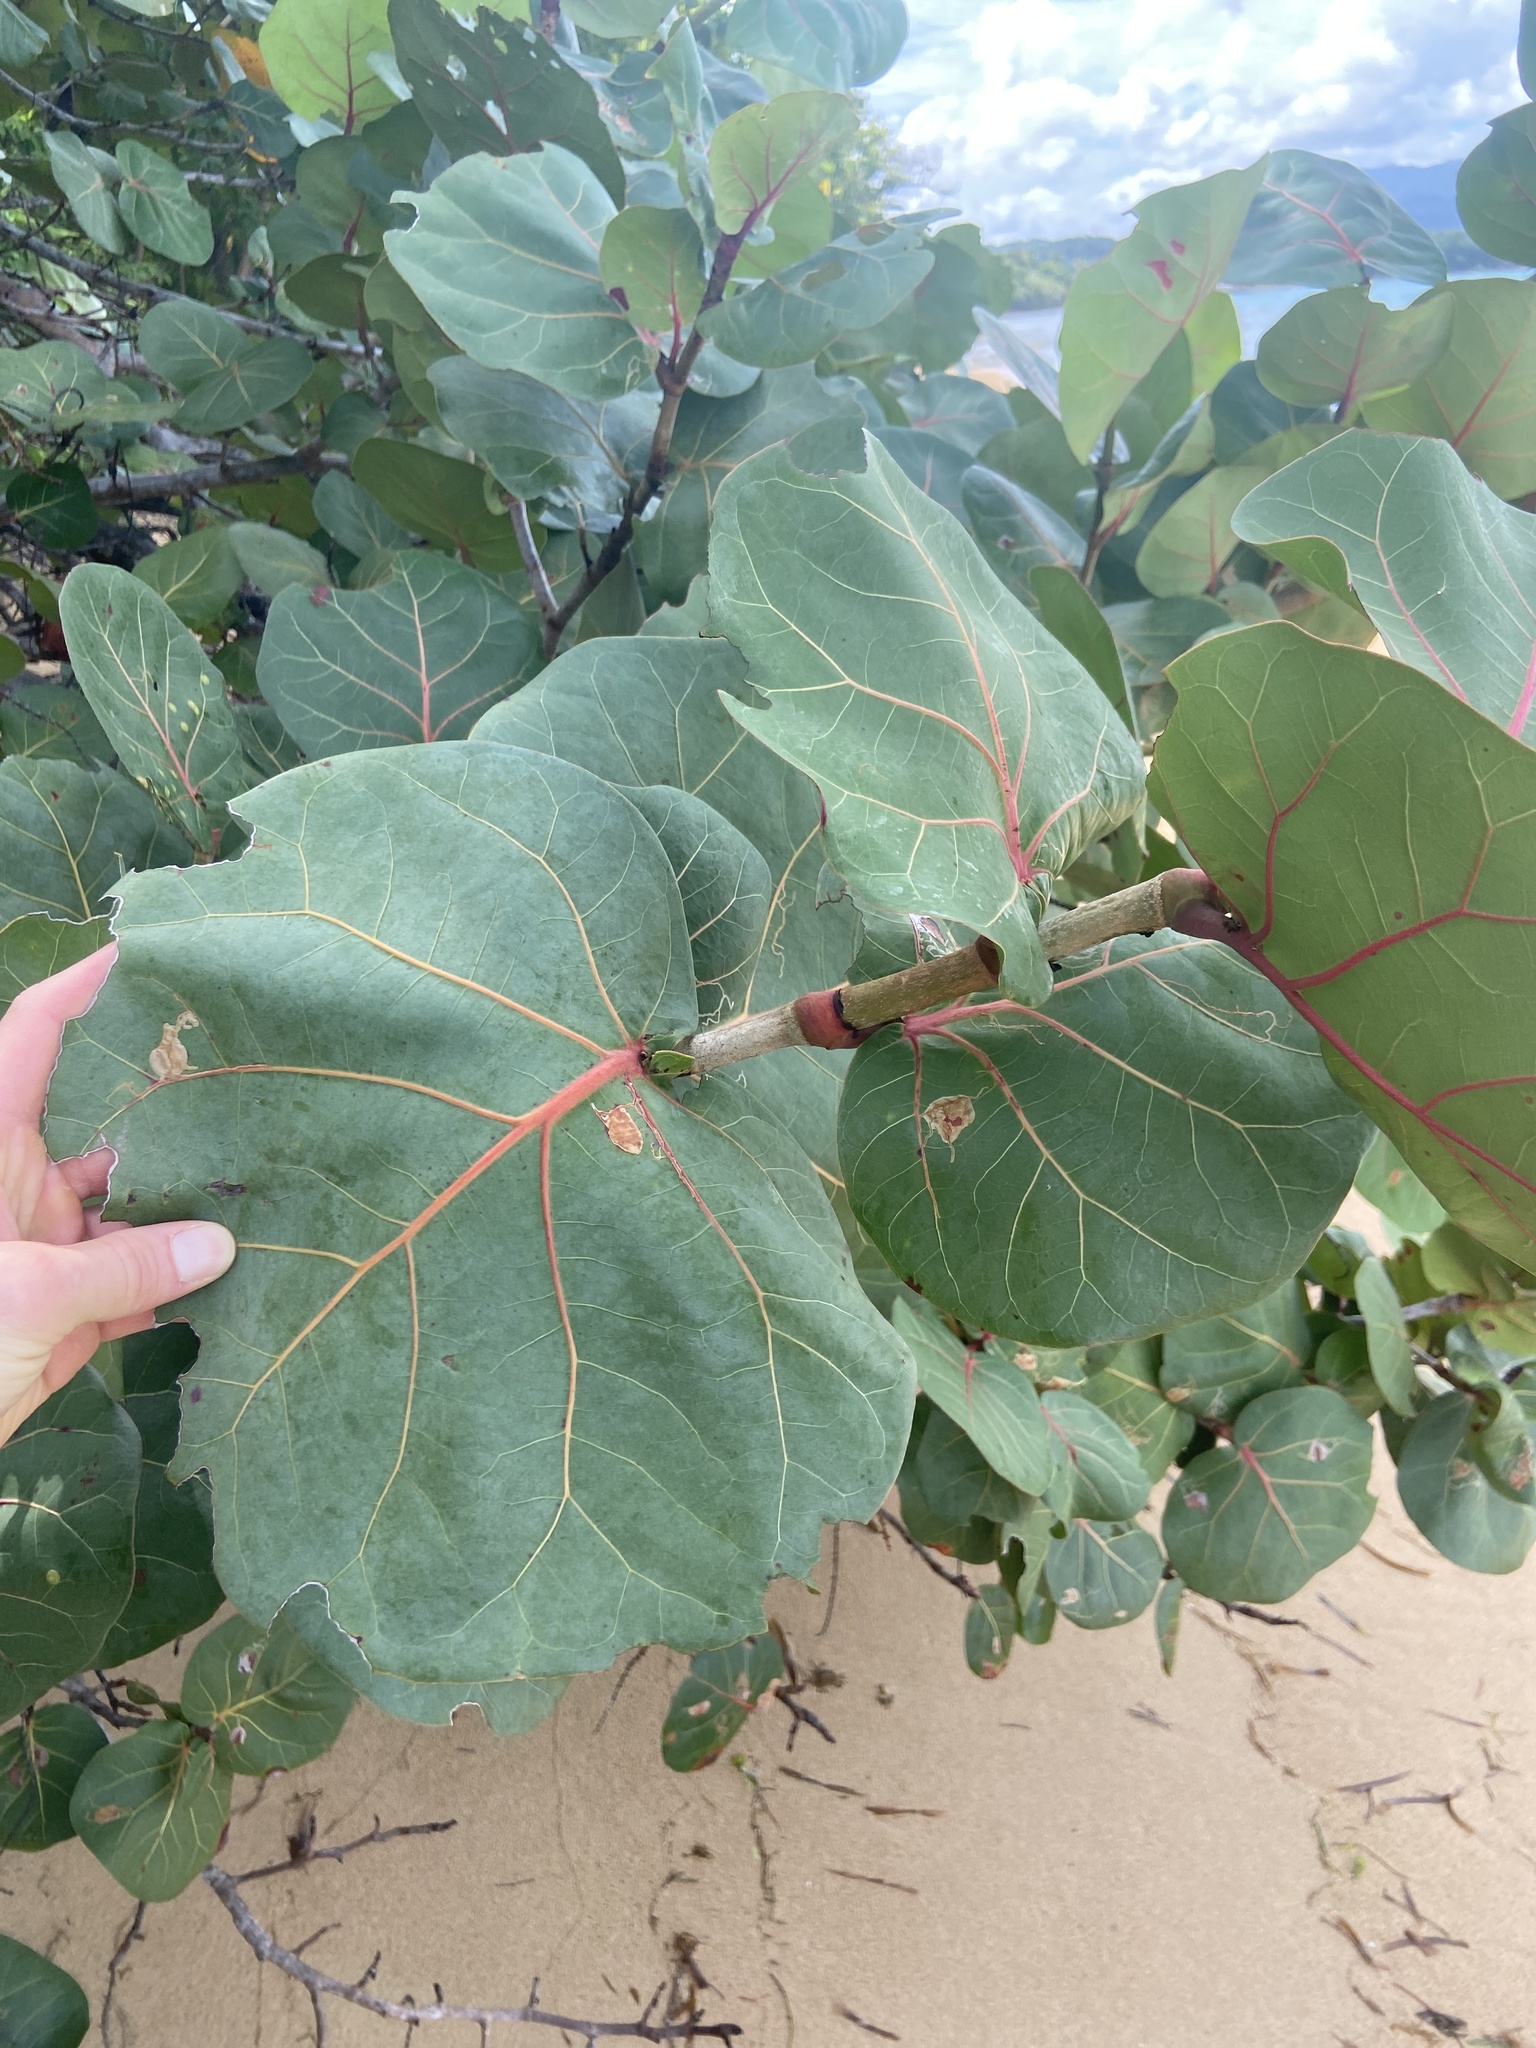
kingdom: Plantae
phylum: Tracheophyta
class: Magnoliopsida
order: Caryophyllales
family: Polygonaceae
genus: Coccoloba
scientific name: Coccoloba uvifera
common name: Seagrape
